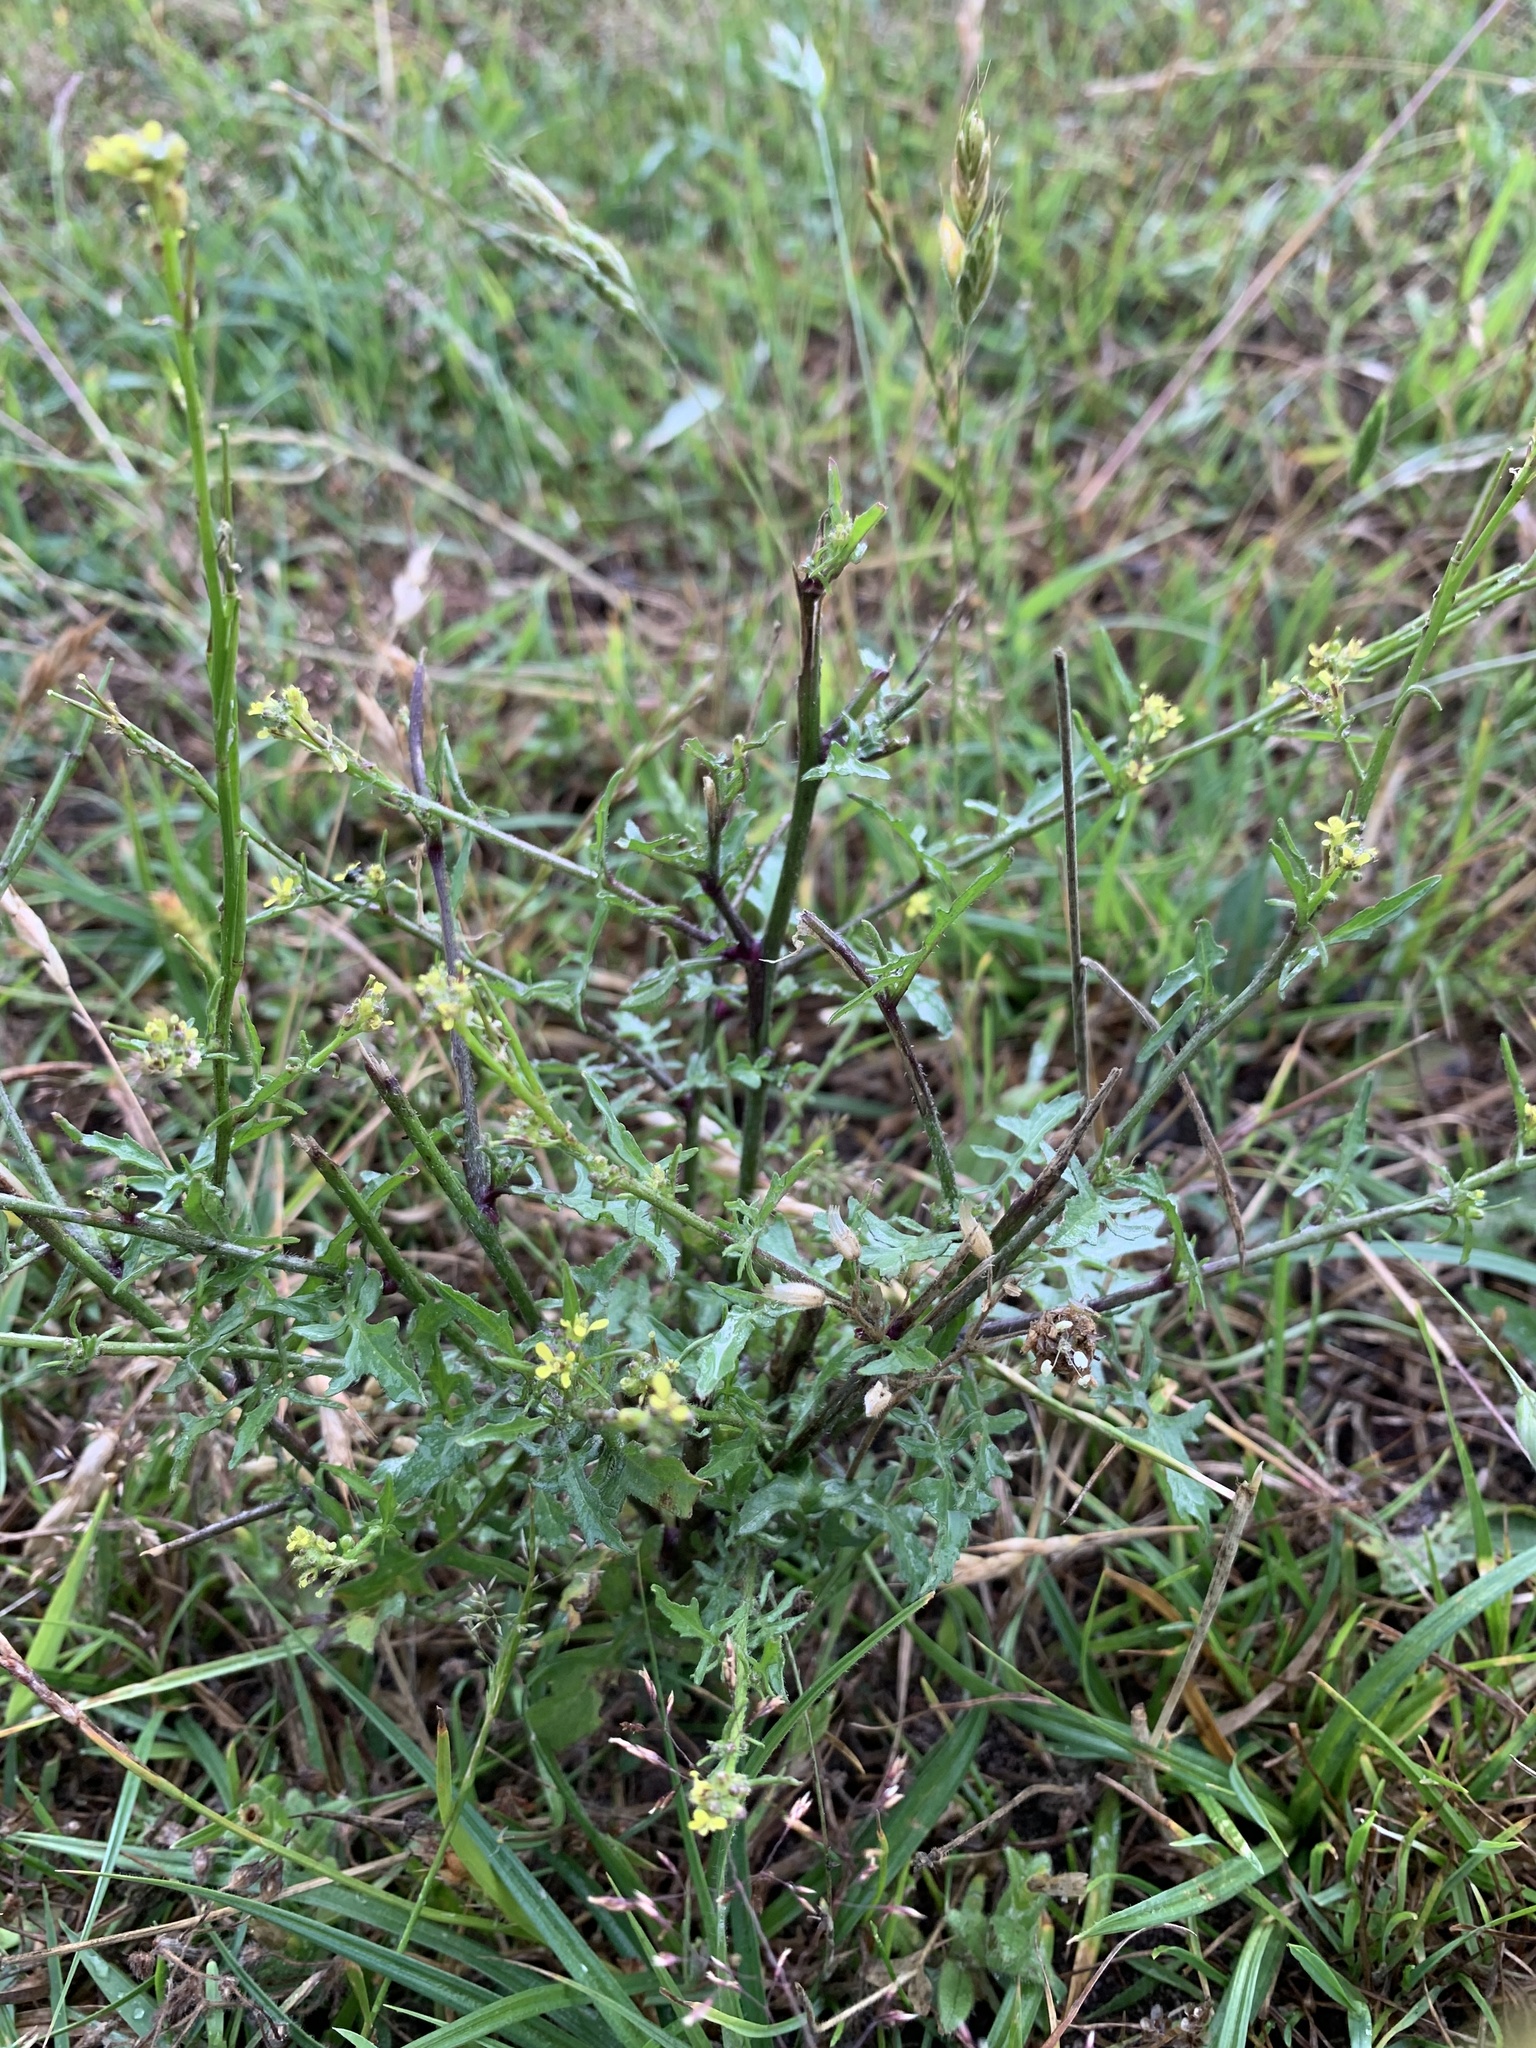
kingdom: Plantae
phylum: Tracheophyta
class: Magnoliopsida
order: Brassicales
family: Brassicaceae
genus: Sisymbrium
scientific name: Sisymbrium officinale
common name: Hedge mustard
